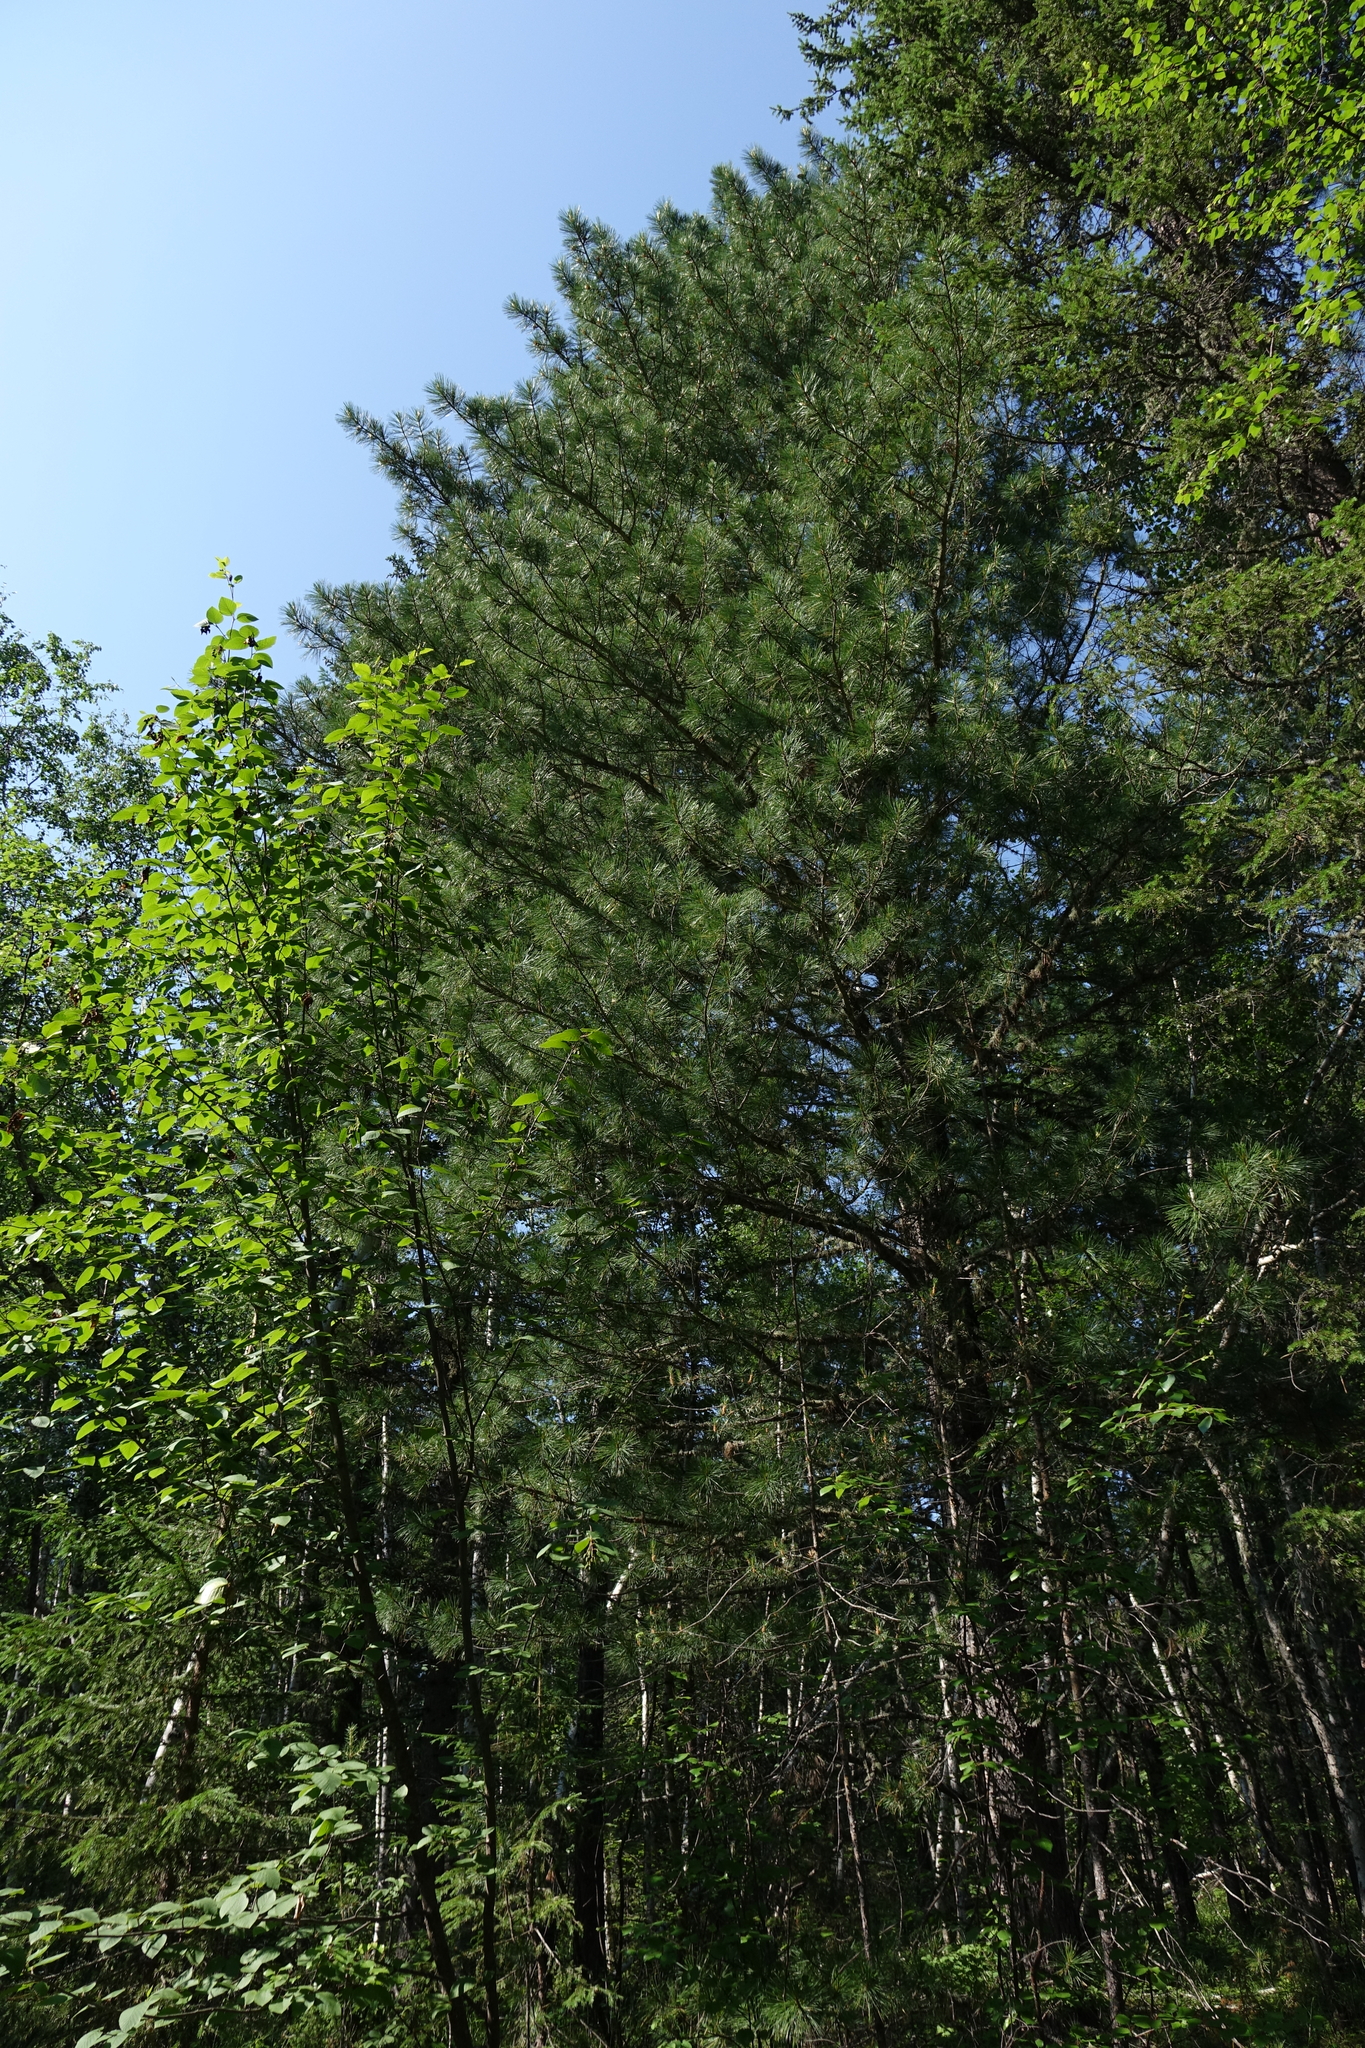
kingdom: Plantae
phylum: Tracheophyta
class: Pinopsida
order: Pinales
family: Pinaceae
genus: Pinus
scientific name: Pinus sibirica
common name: Siberian pine
